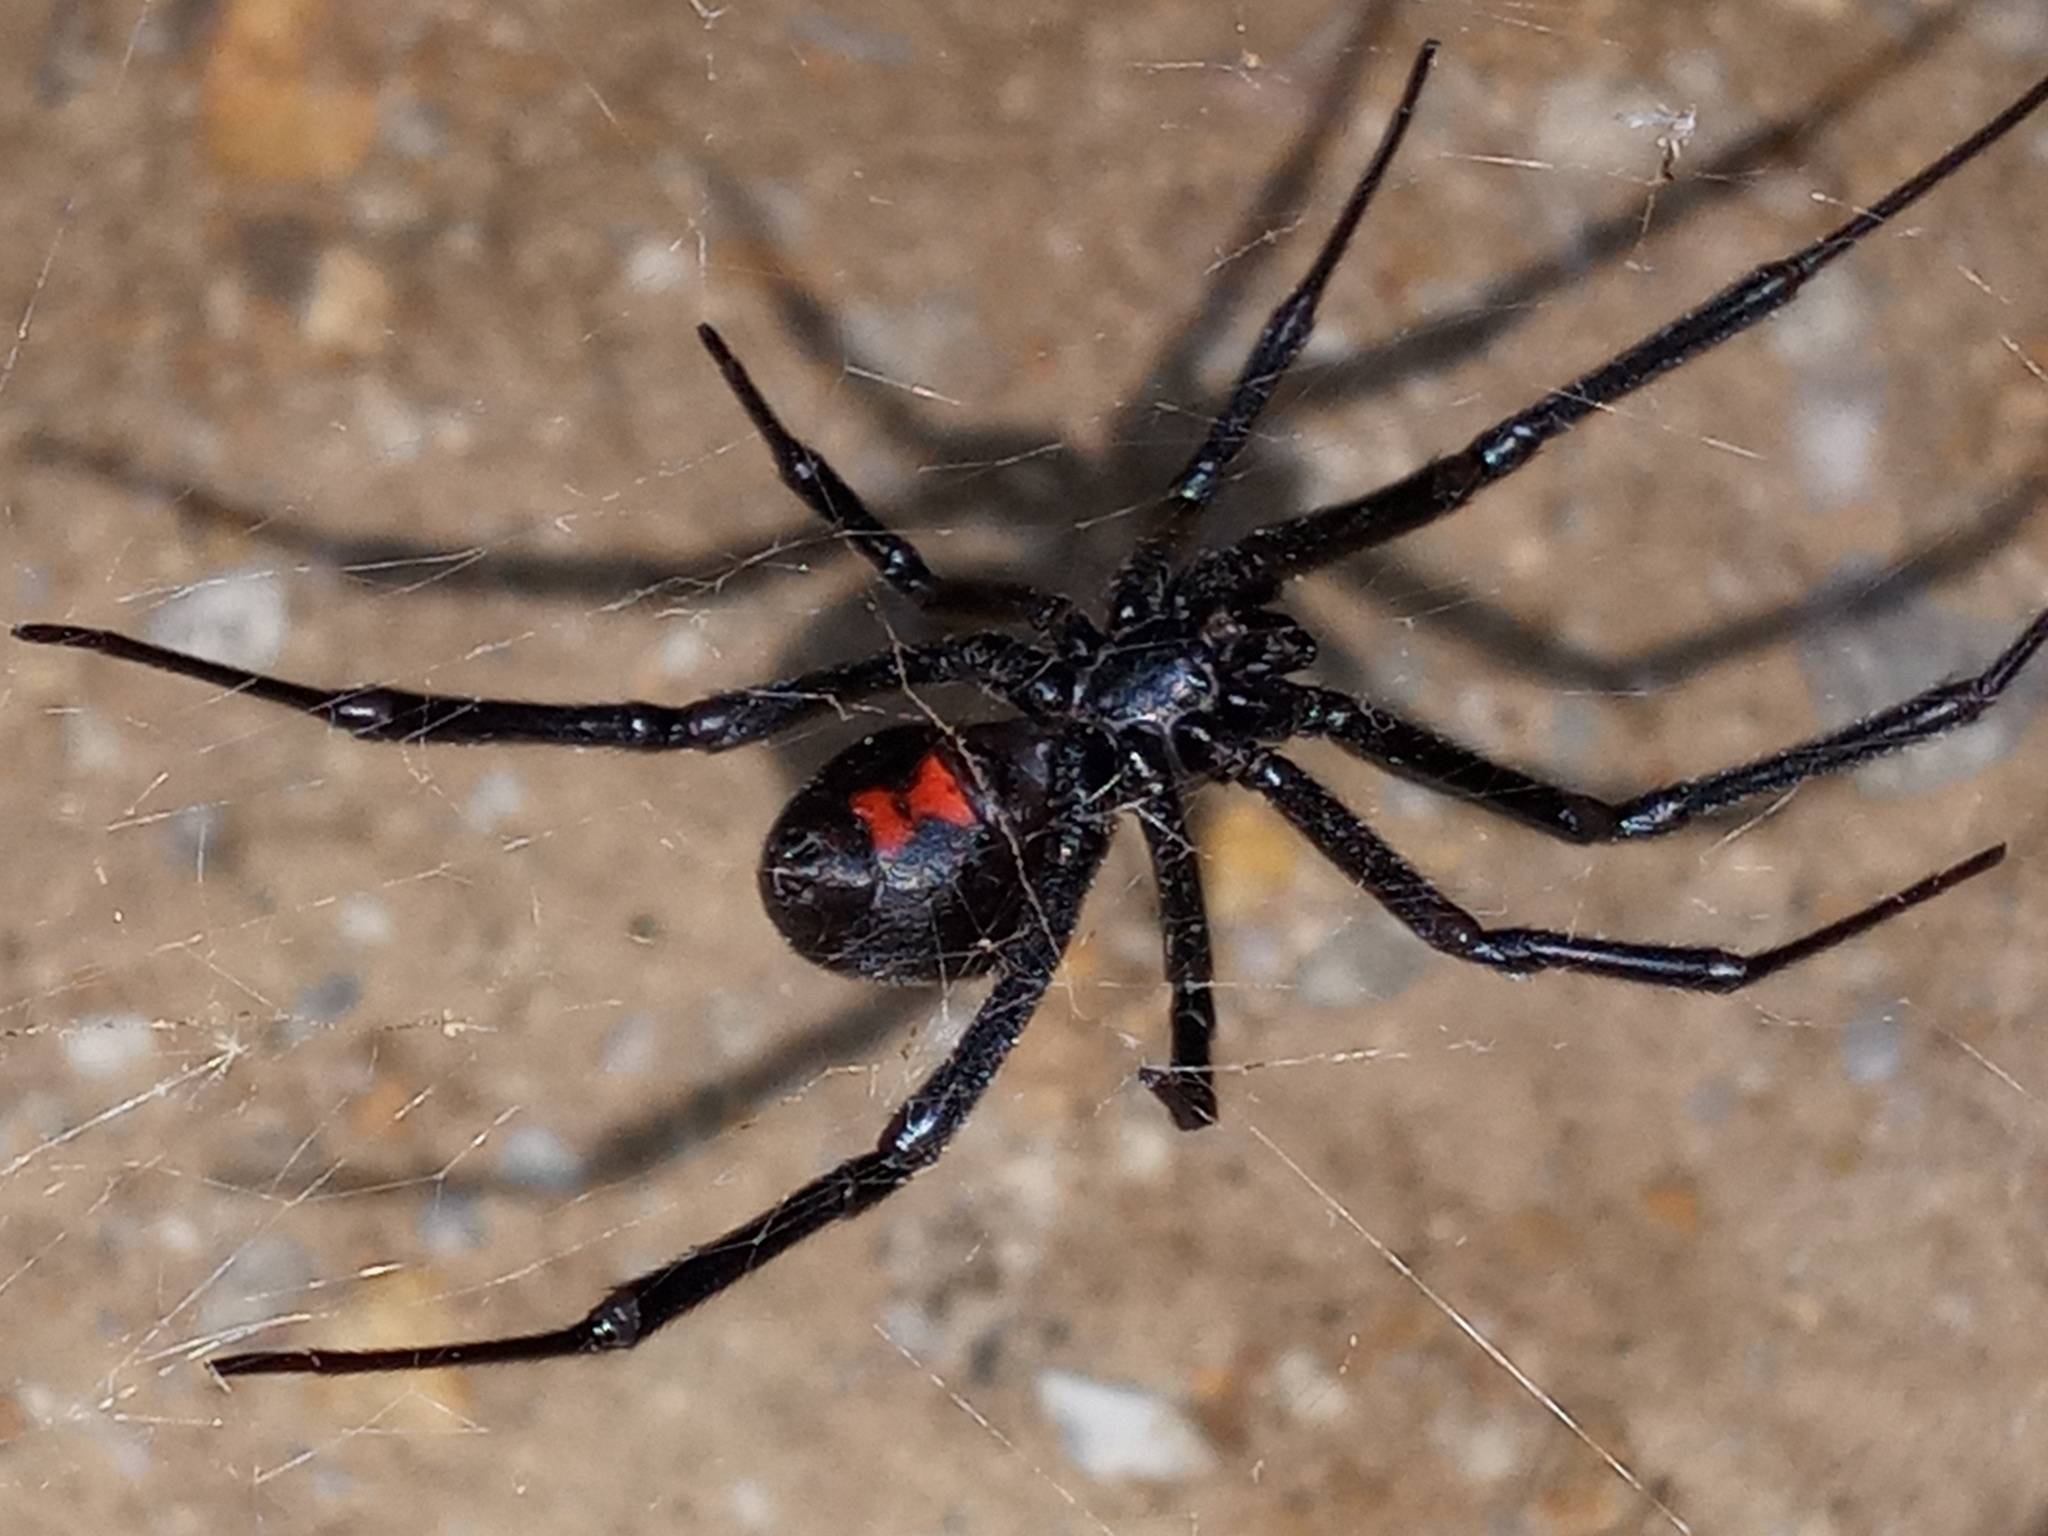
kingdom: Animalia
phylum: Arthropoda
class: Arachnida
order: Araneae
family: Theridiidae
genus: Latrodectus
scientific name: Latrodectus hesperus
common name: Western black widow
